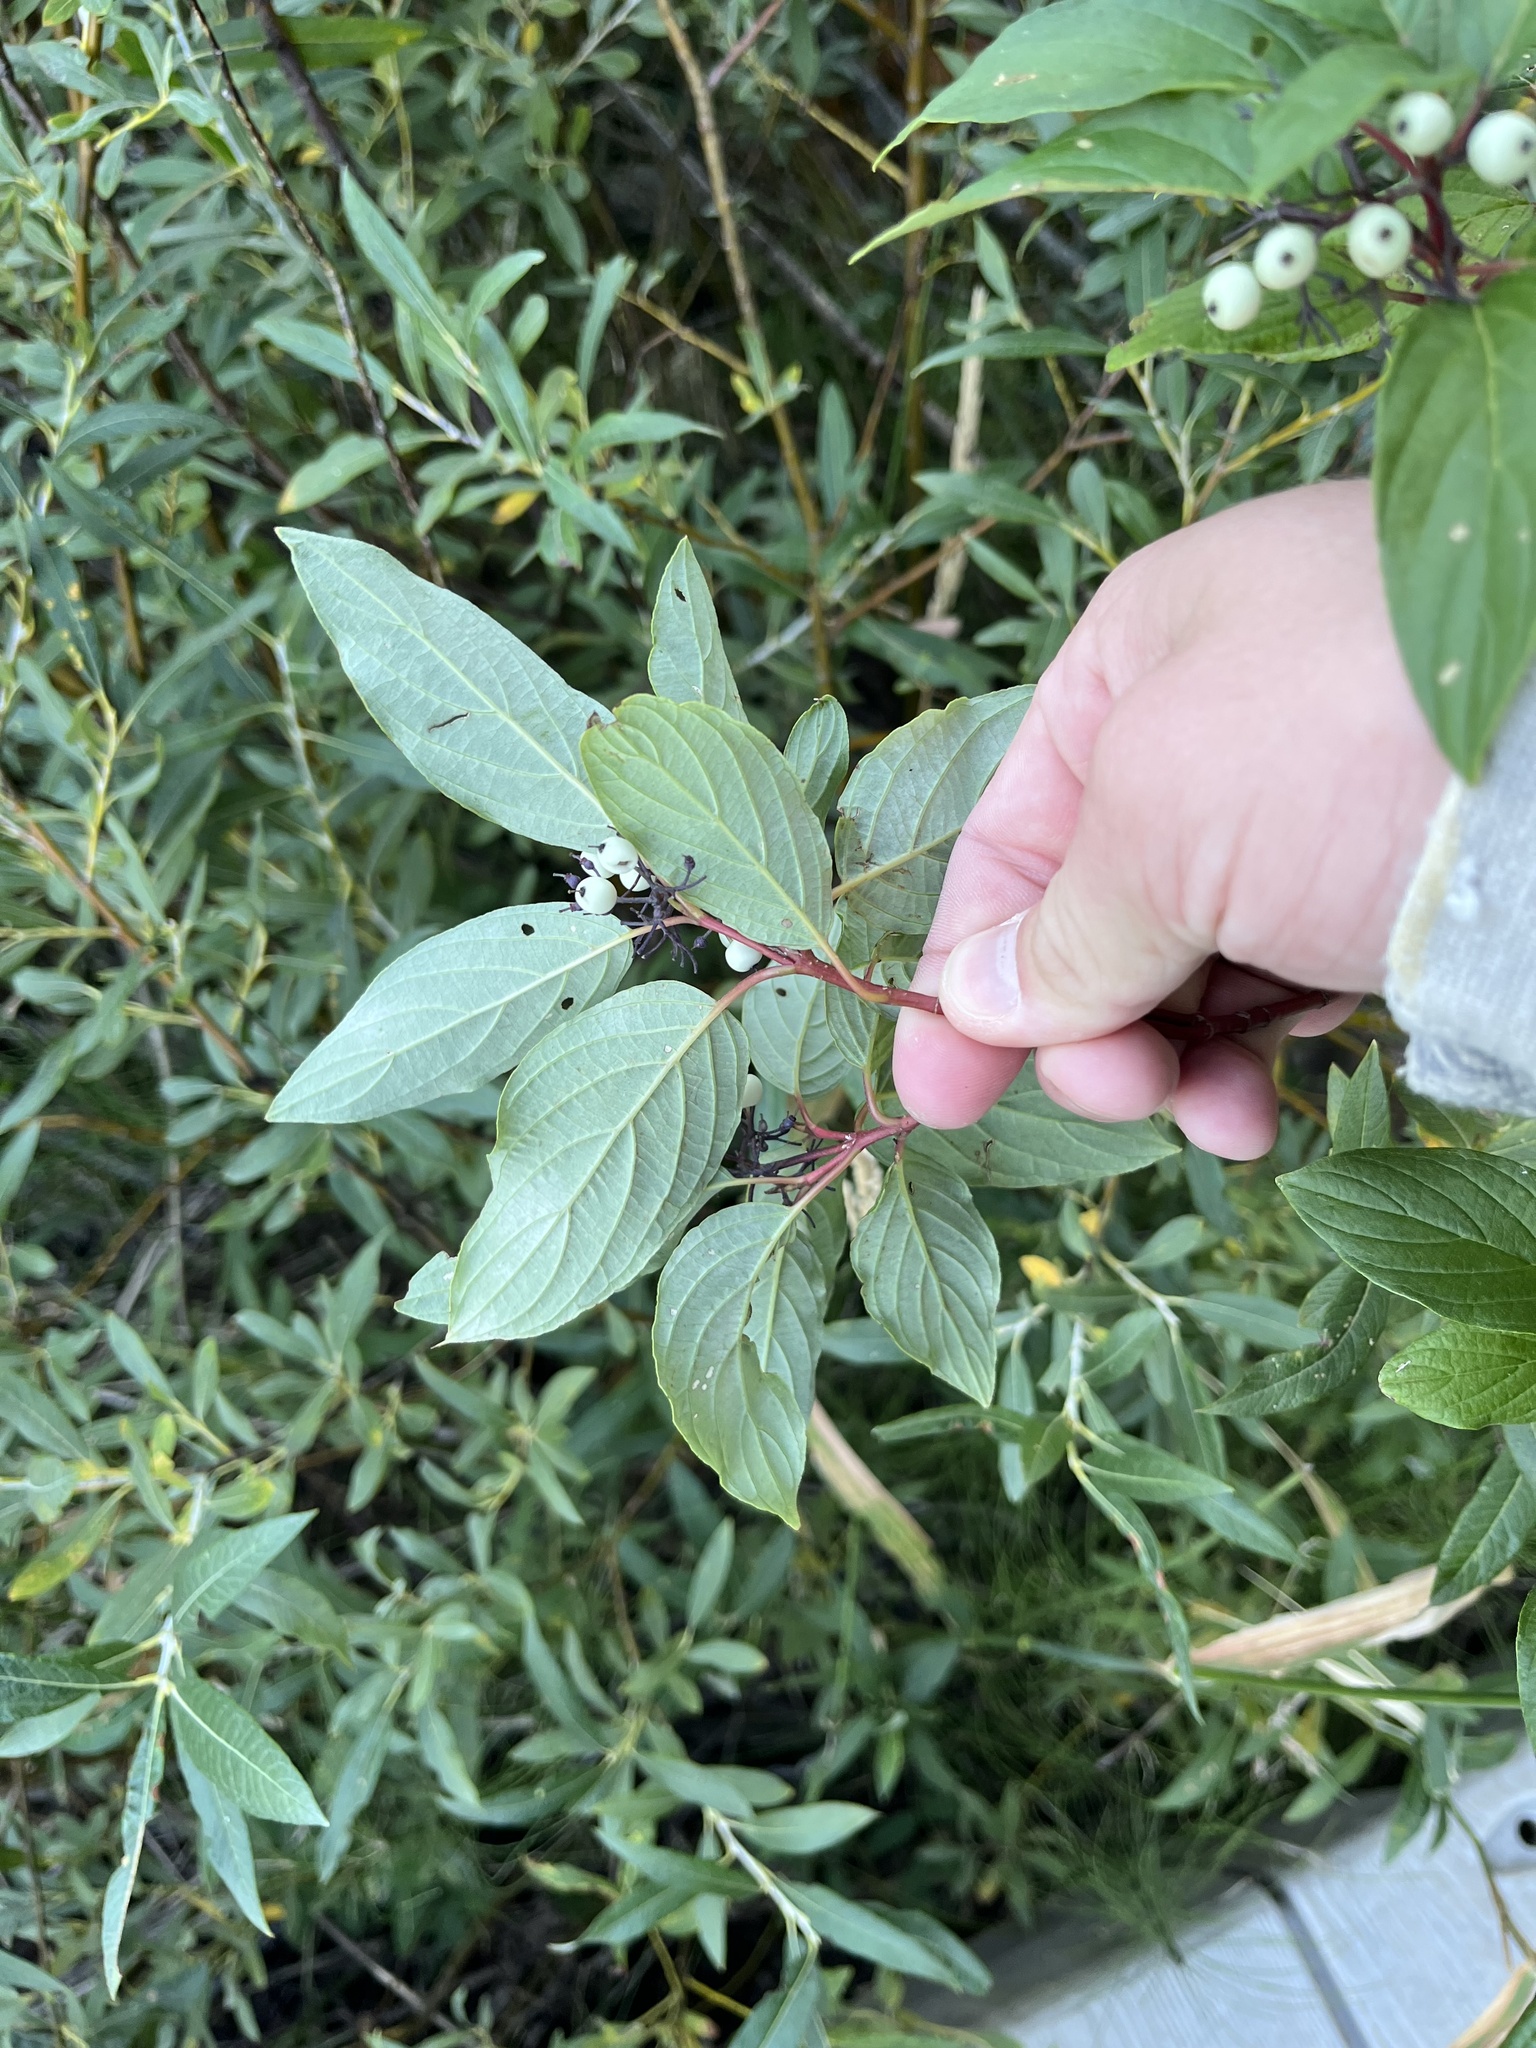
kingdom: Plantae
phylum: Tracheophyta
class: Magnoliopsida
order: Cornales
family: Cornaceae
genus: Cornus
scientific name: Cornus sericea
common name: Red-osier dogwood
